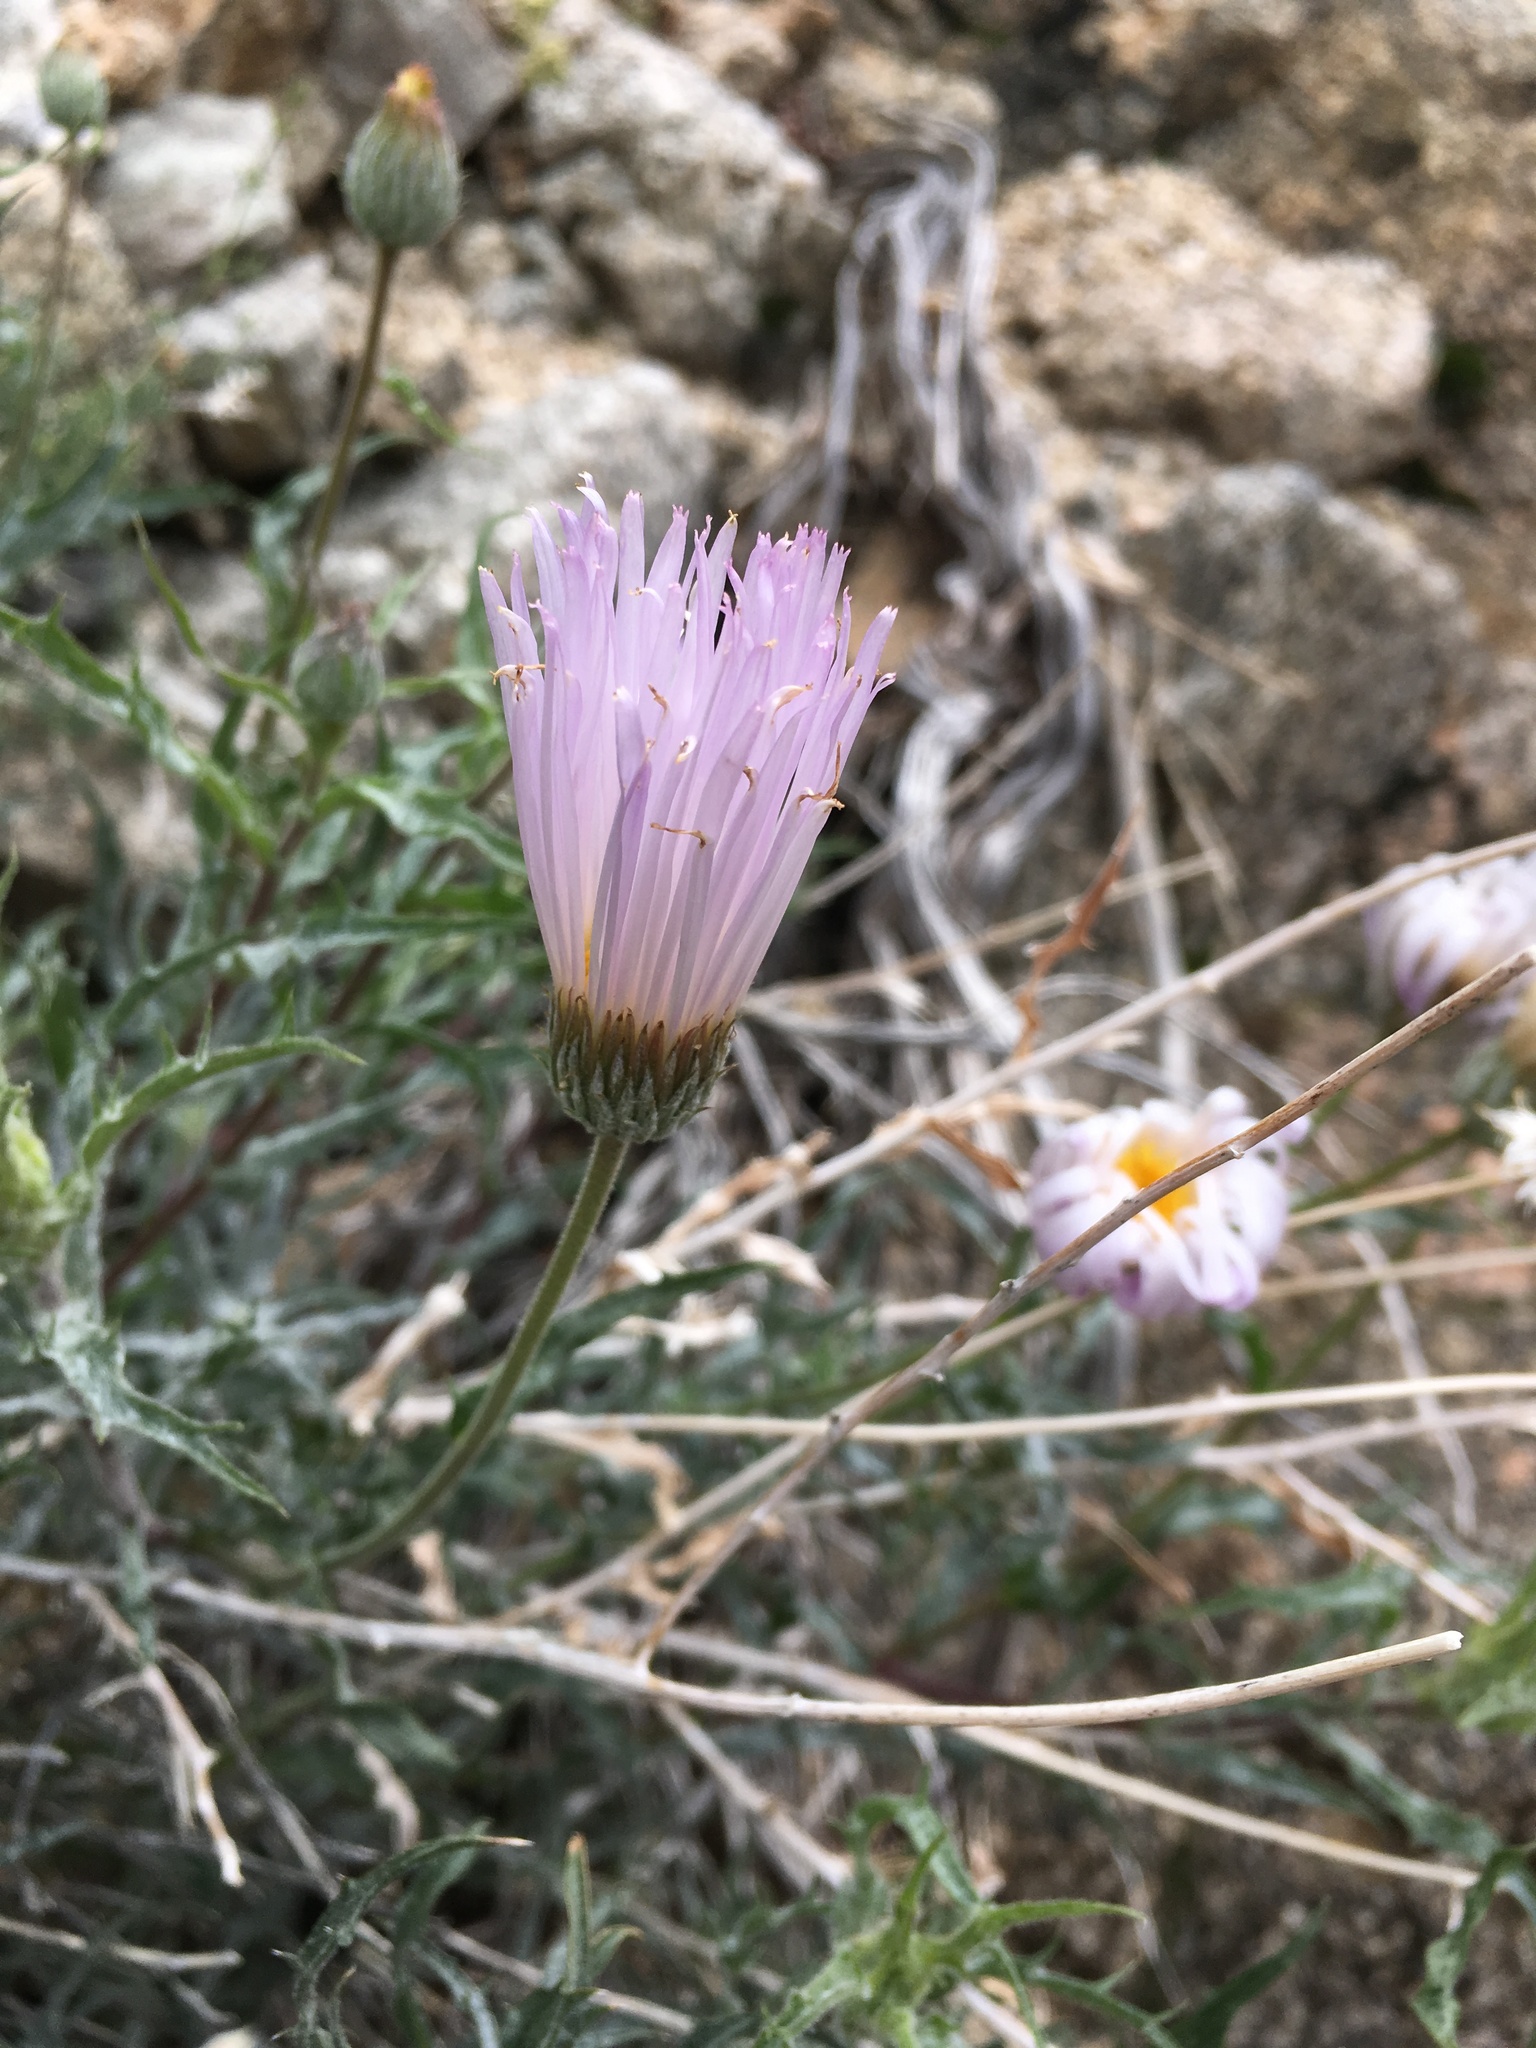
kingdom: Plantae
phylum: Tracheophyta
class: Magnoliopsida
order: Asterales
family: Asteraceae
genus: Xylorhiza
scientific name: Xylorhiza tortifolia
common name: Hurt-leaf woody-aster
